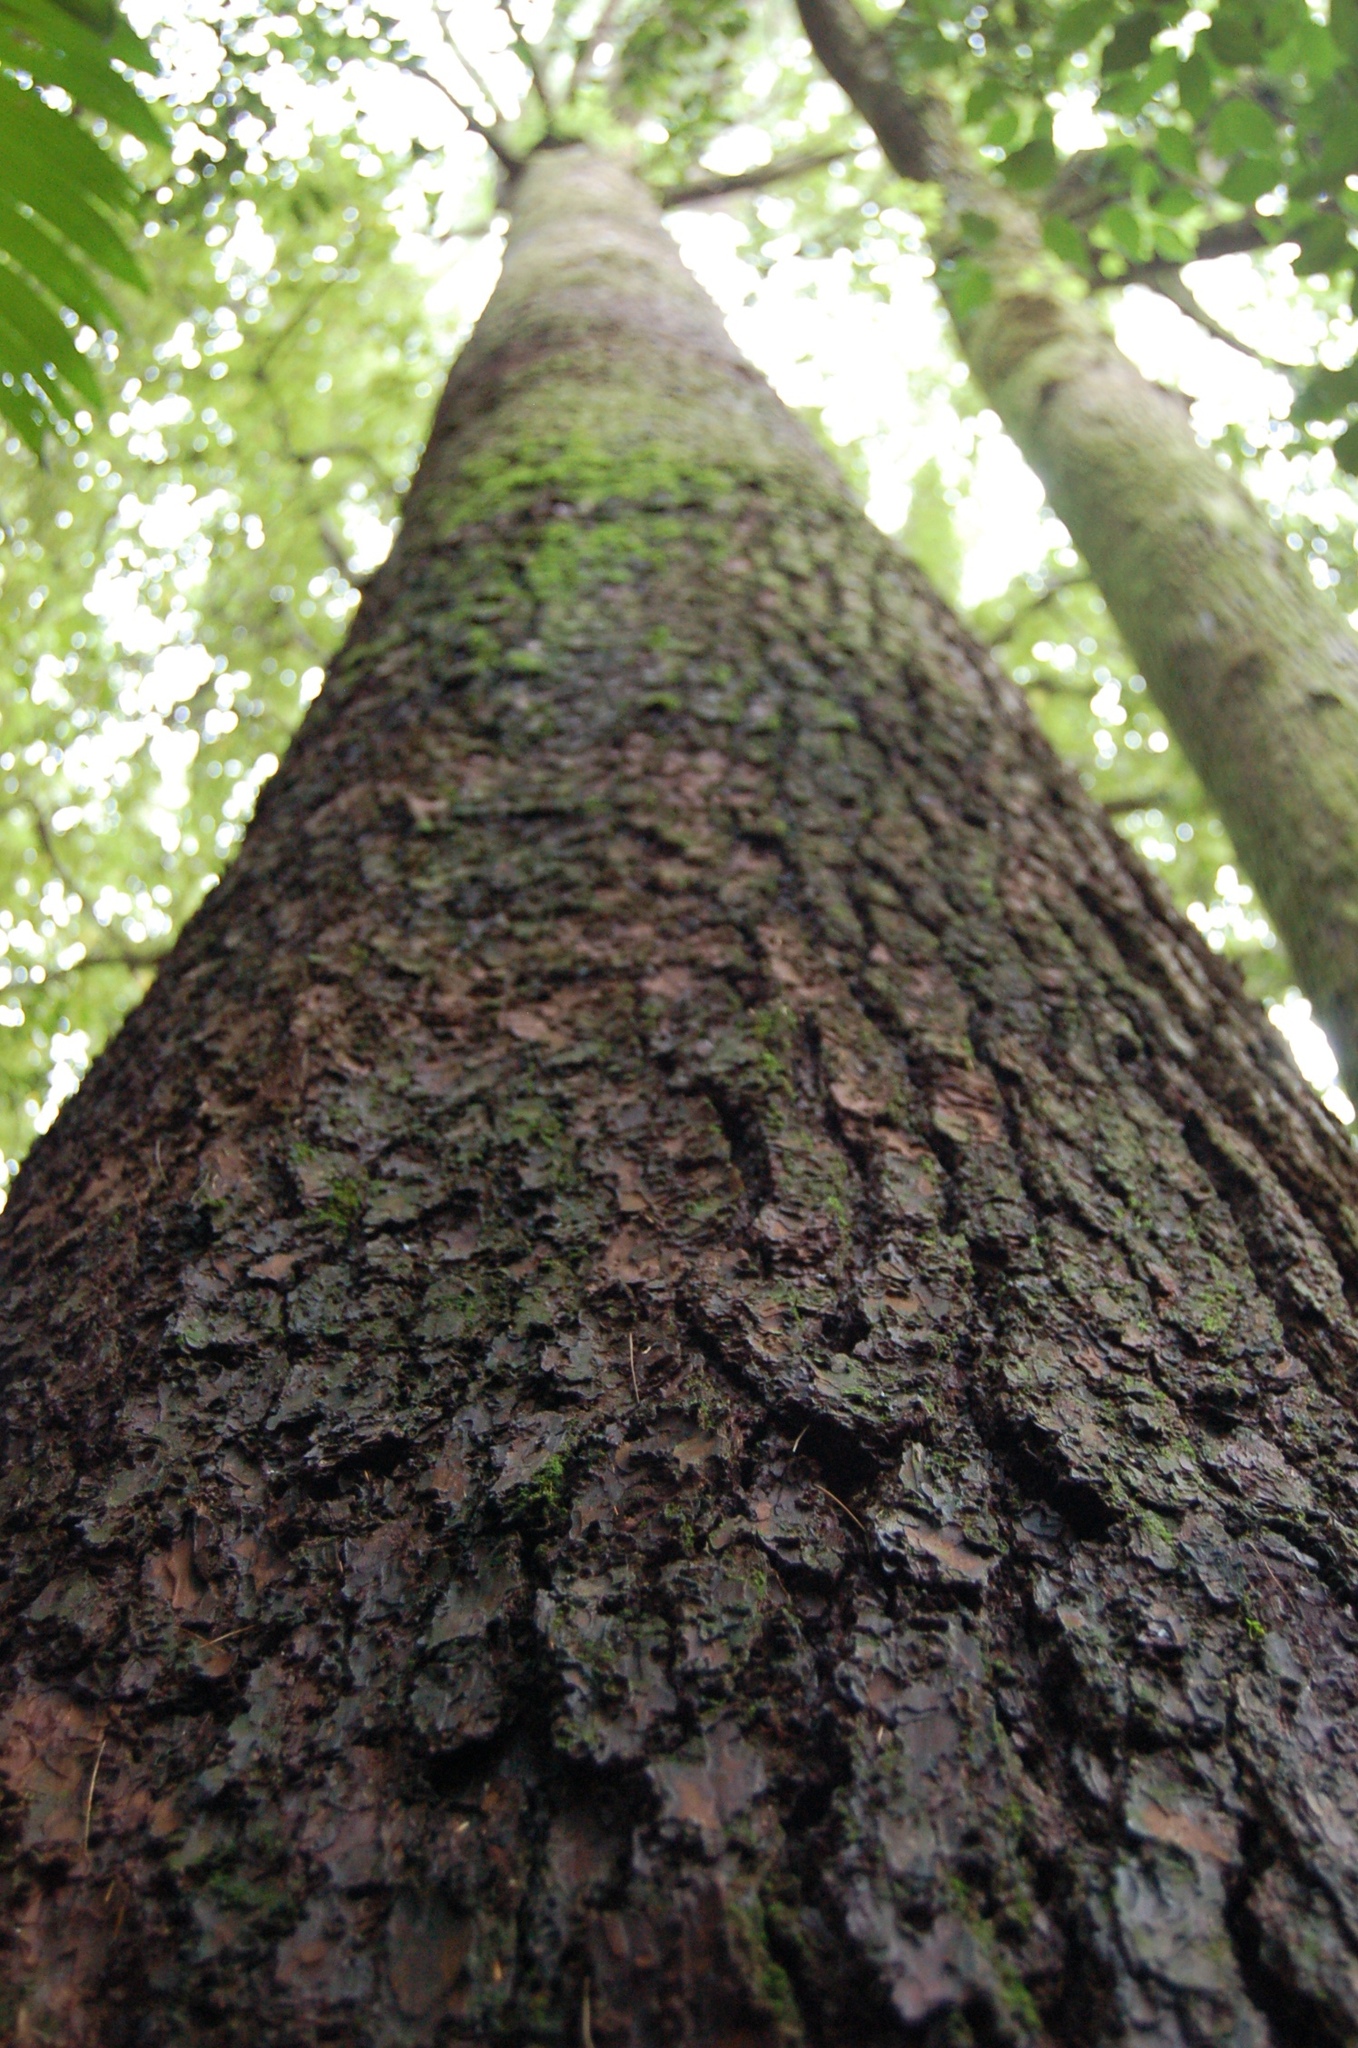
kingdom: Plantae
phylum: Tracheophyta
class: Pinopsida
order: Pinales
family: Pinaceae
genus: Pinus
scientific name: Pinus strobus
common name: Weymouth pine
